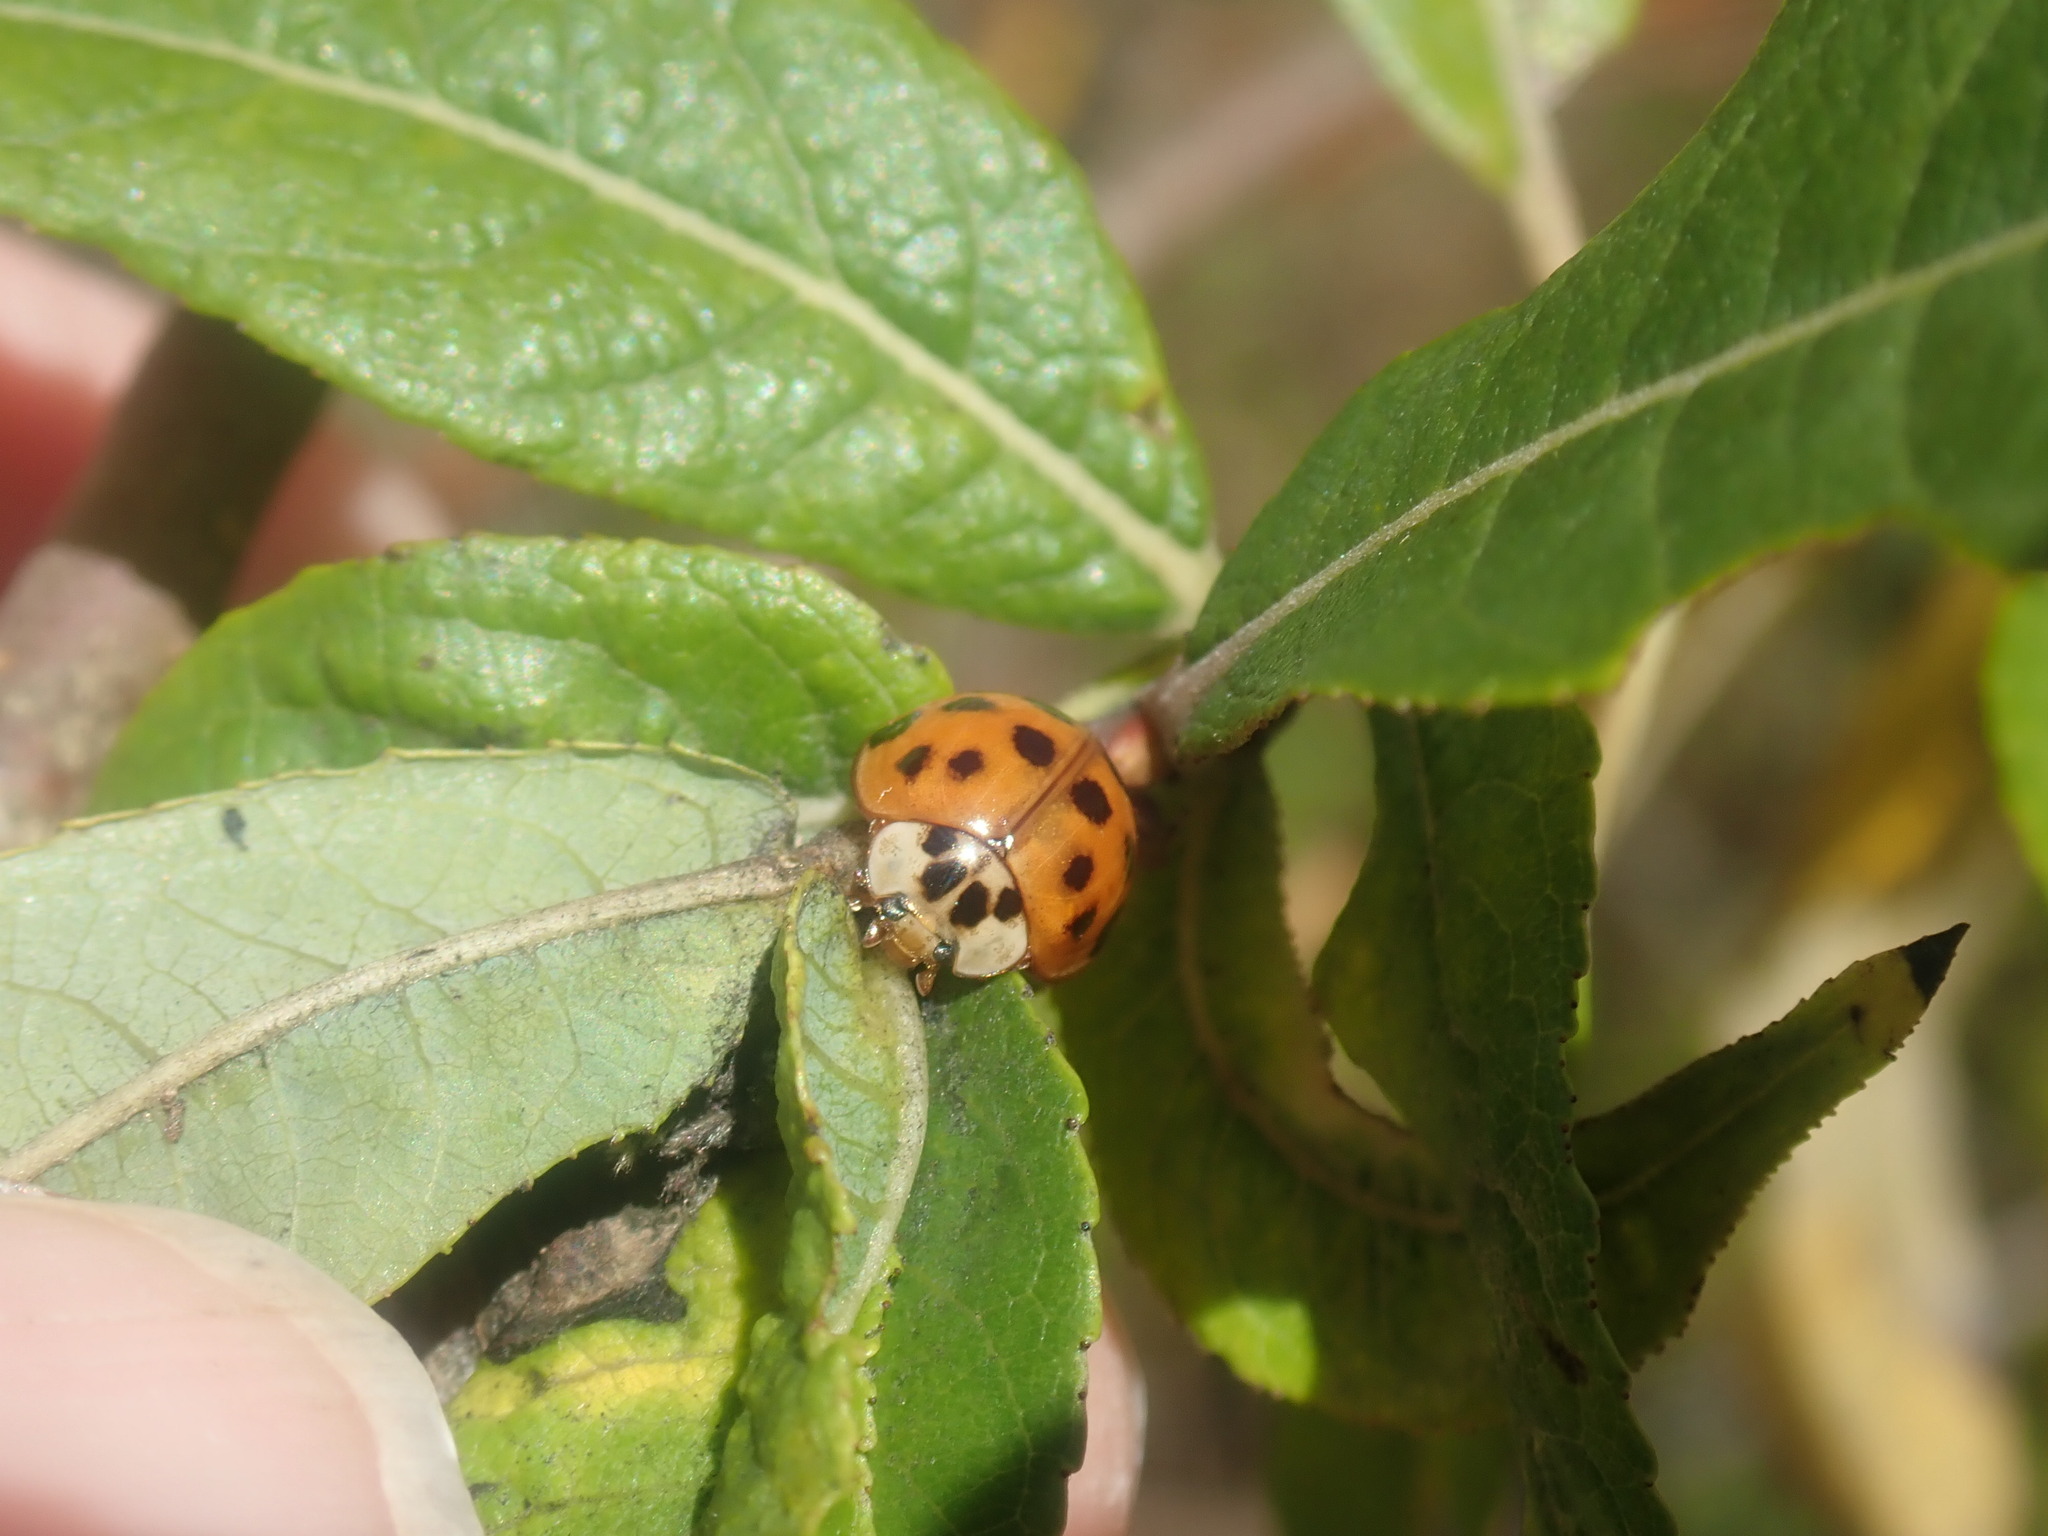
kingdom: Animalia
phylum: Arthropoda
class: Insecta
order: Coleoptera
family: Coccinellidae
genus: Harmonia
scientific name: Harmonia axyridis
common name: Harlequin ladybird
